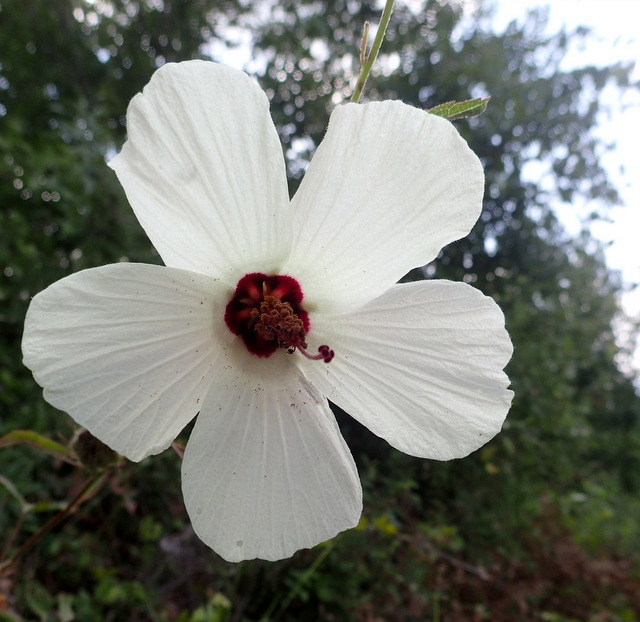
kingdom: Plantae
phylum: Tracheophyta
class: Magnoliopsida
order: Malvales
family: Malvaceae
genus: Hibiscus
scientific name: Hibiscus aculeatus
